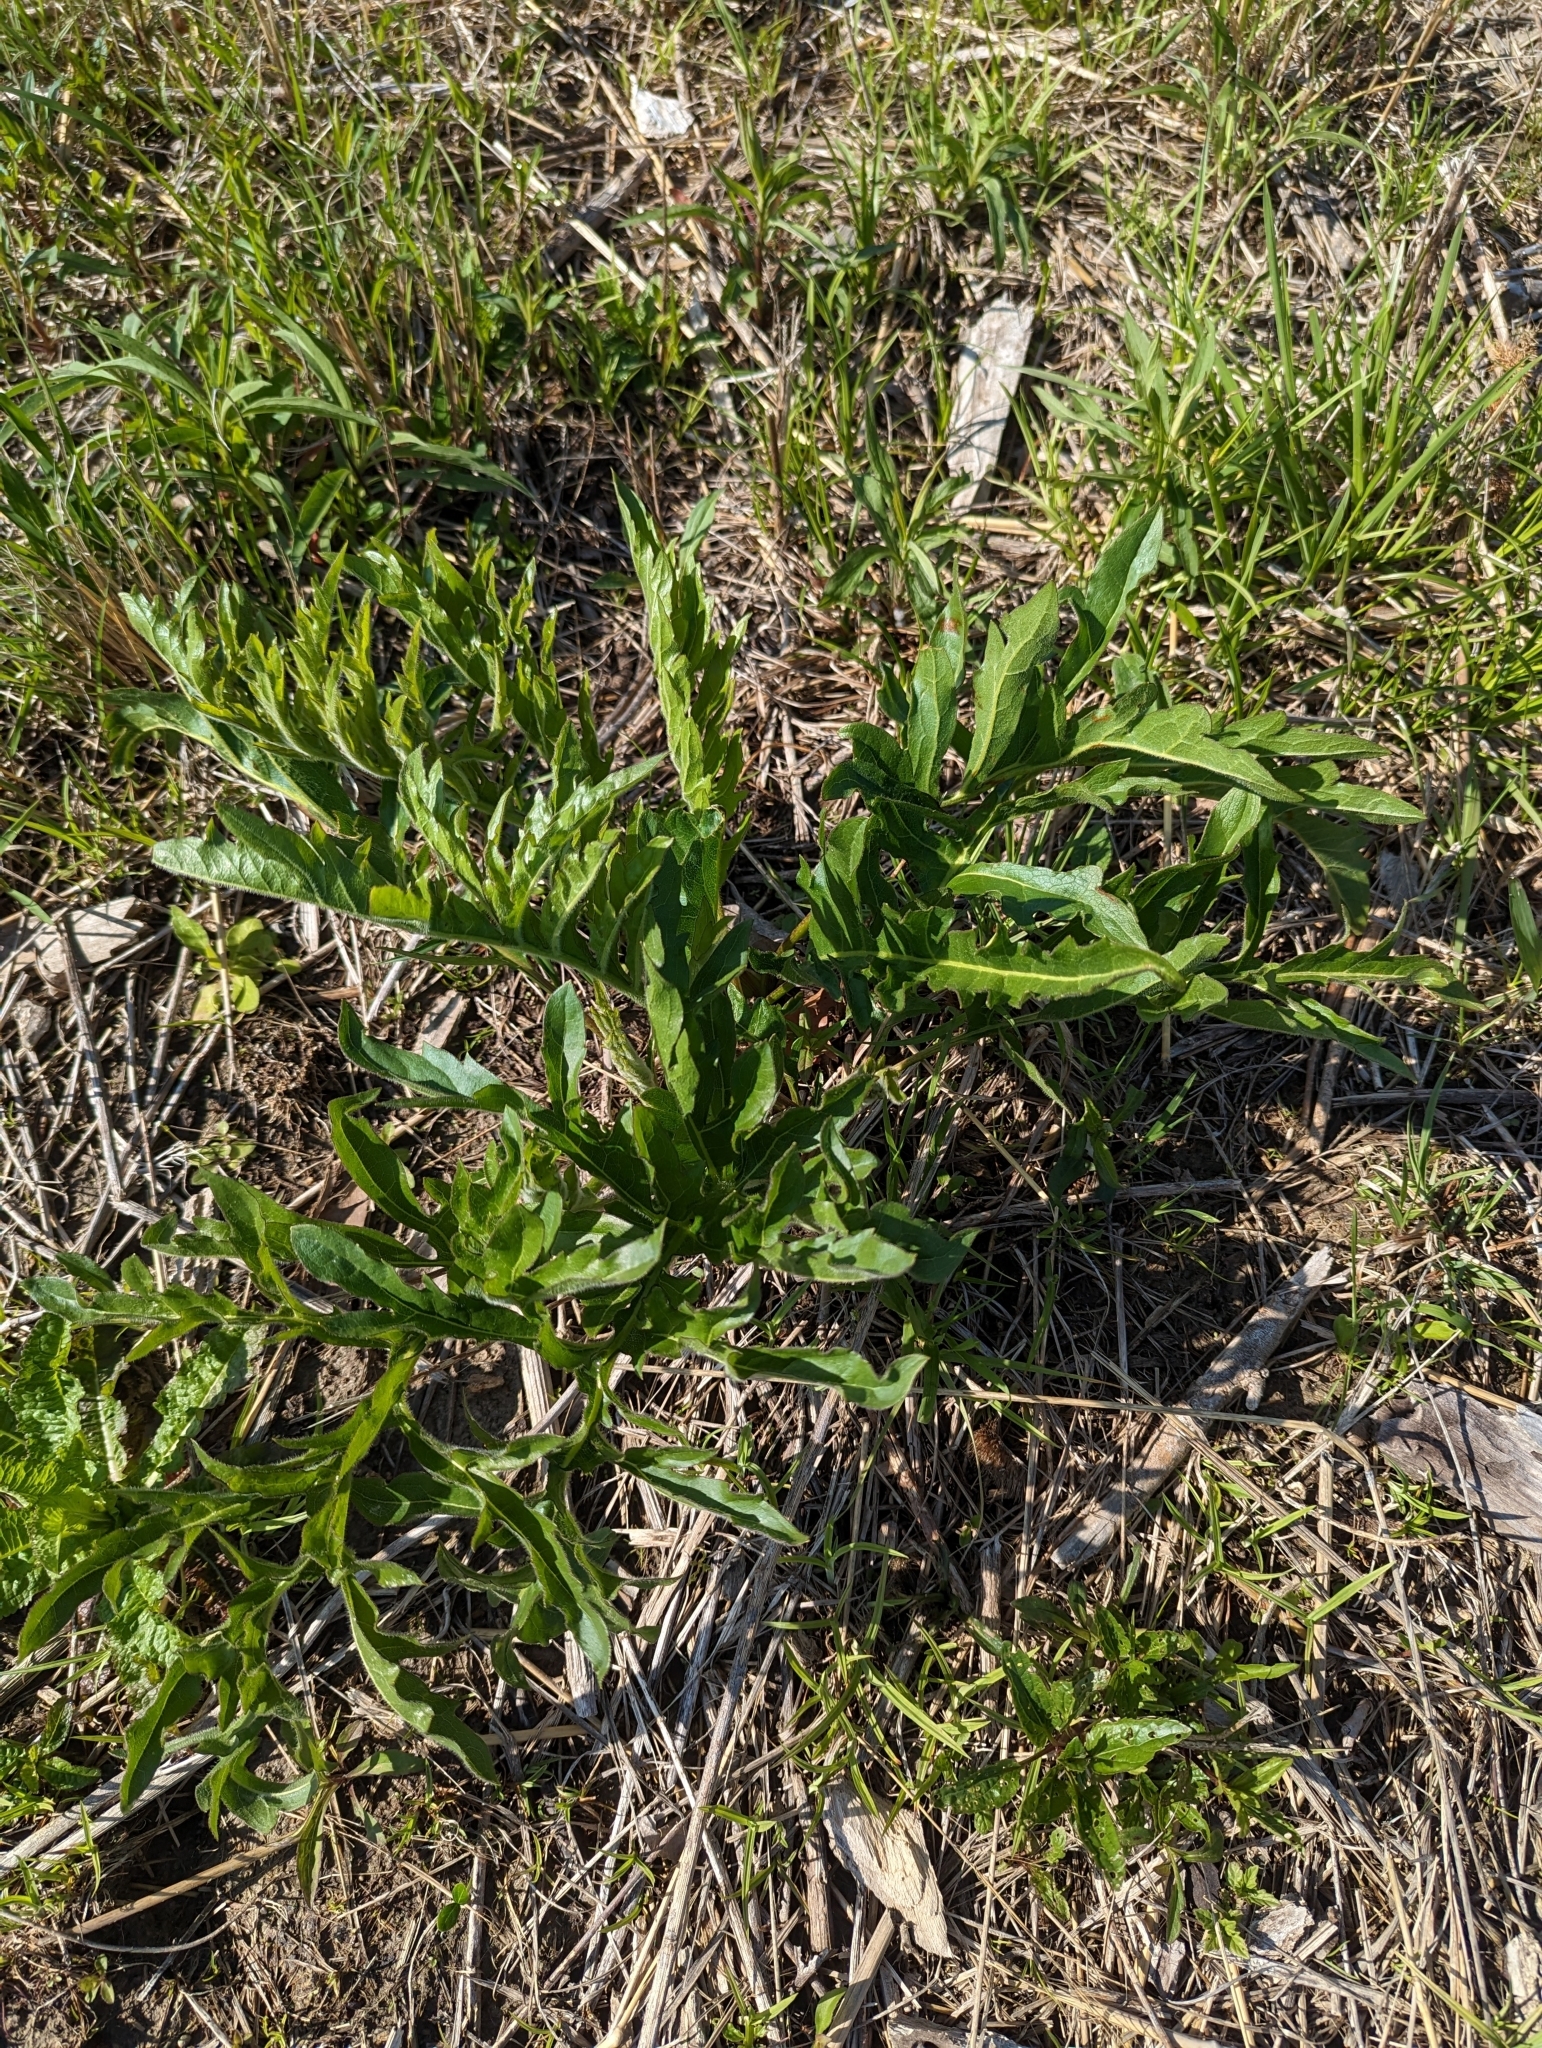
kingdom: Plantae
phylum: Tracheophyta
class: Magnoliopsida
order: Asterales
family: Asteraceae
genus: Silphium
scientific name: Silphium laciniatum
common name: Polarplant
